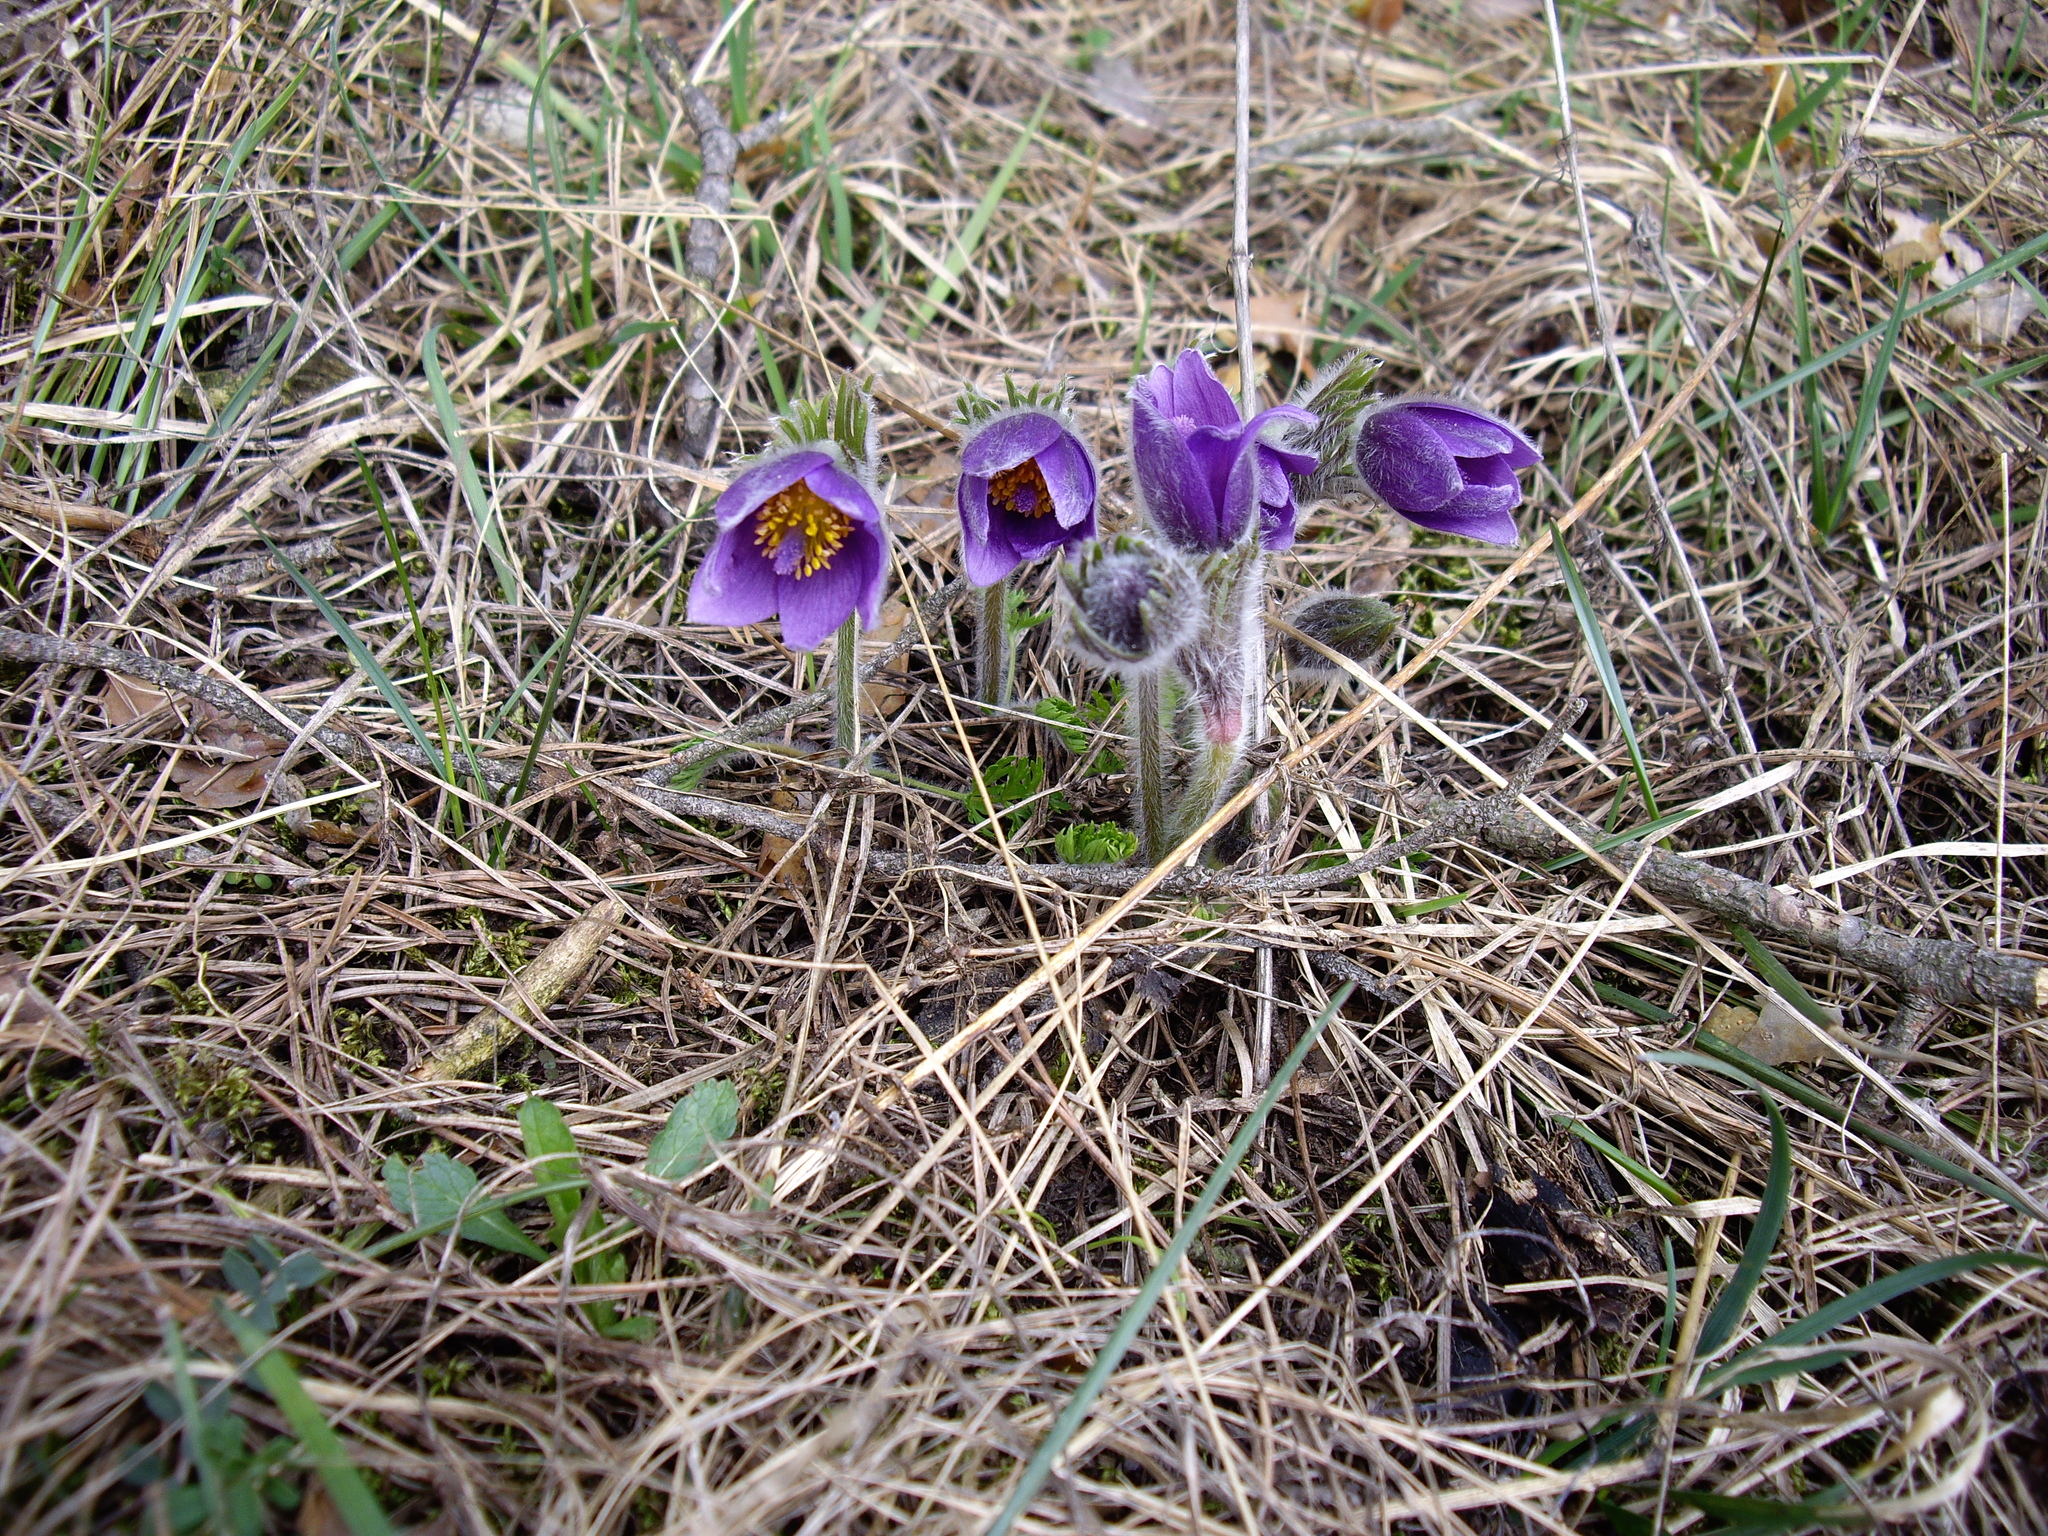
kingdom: Plantae
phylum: Tracheophyta
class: Magnoliopsida
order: Ranunculales
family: Ranunculaceae
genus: Pulsatilla
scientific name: Pulsatilla vulgaris
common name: Pasqueflower
